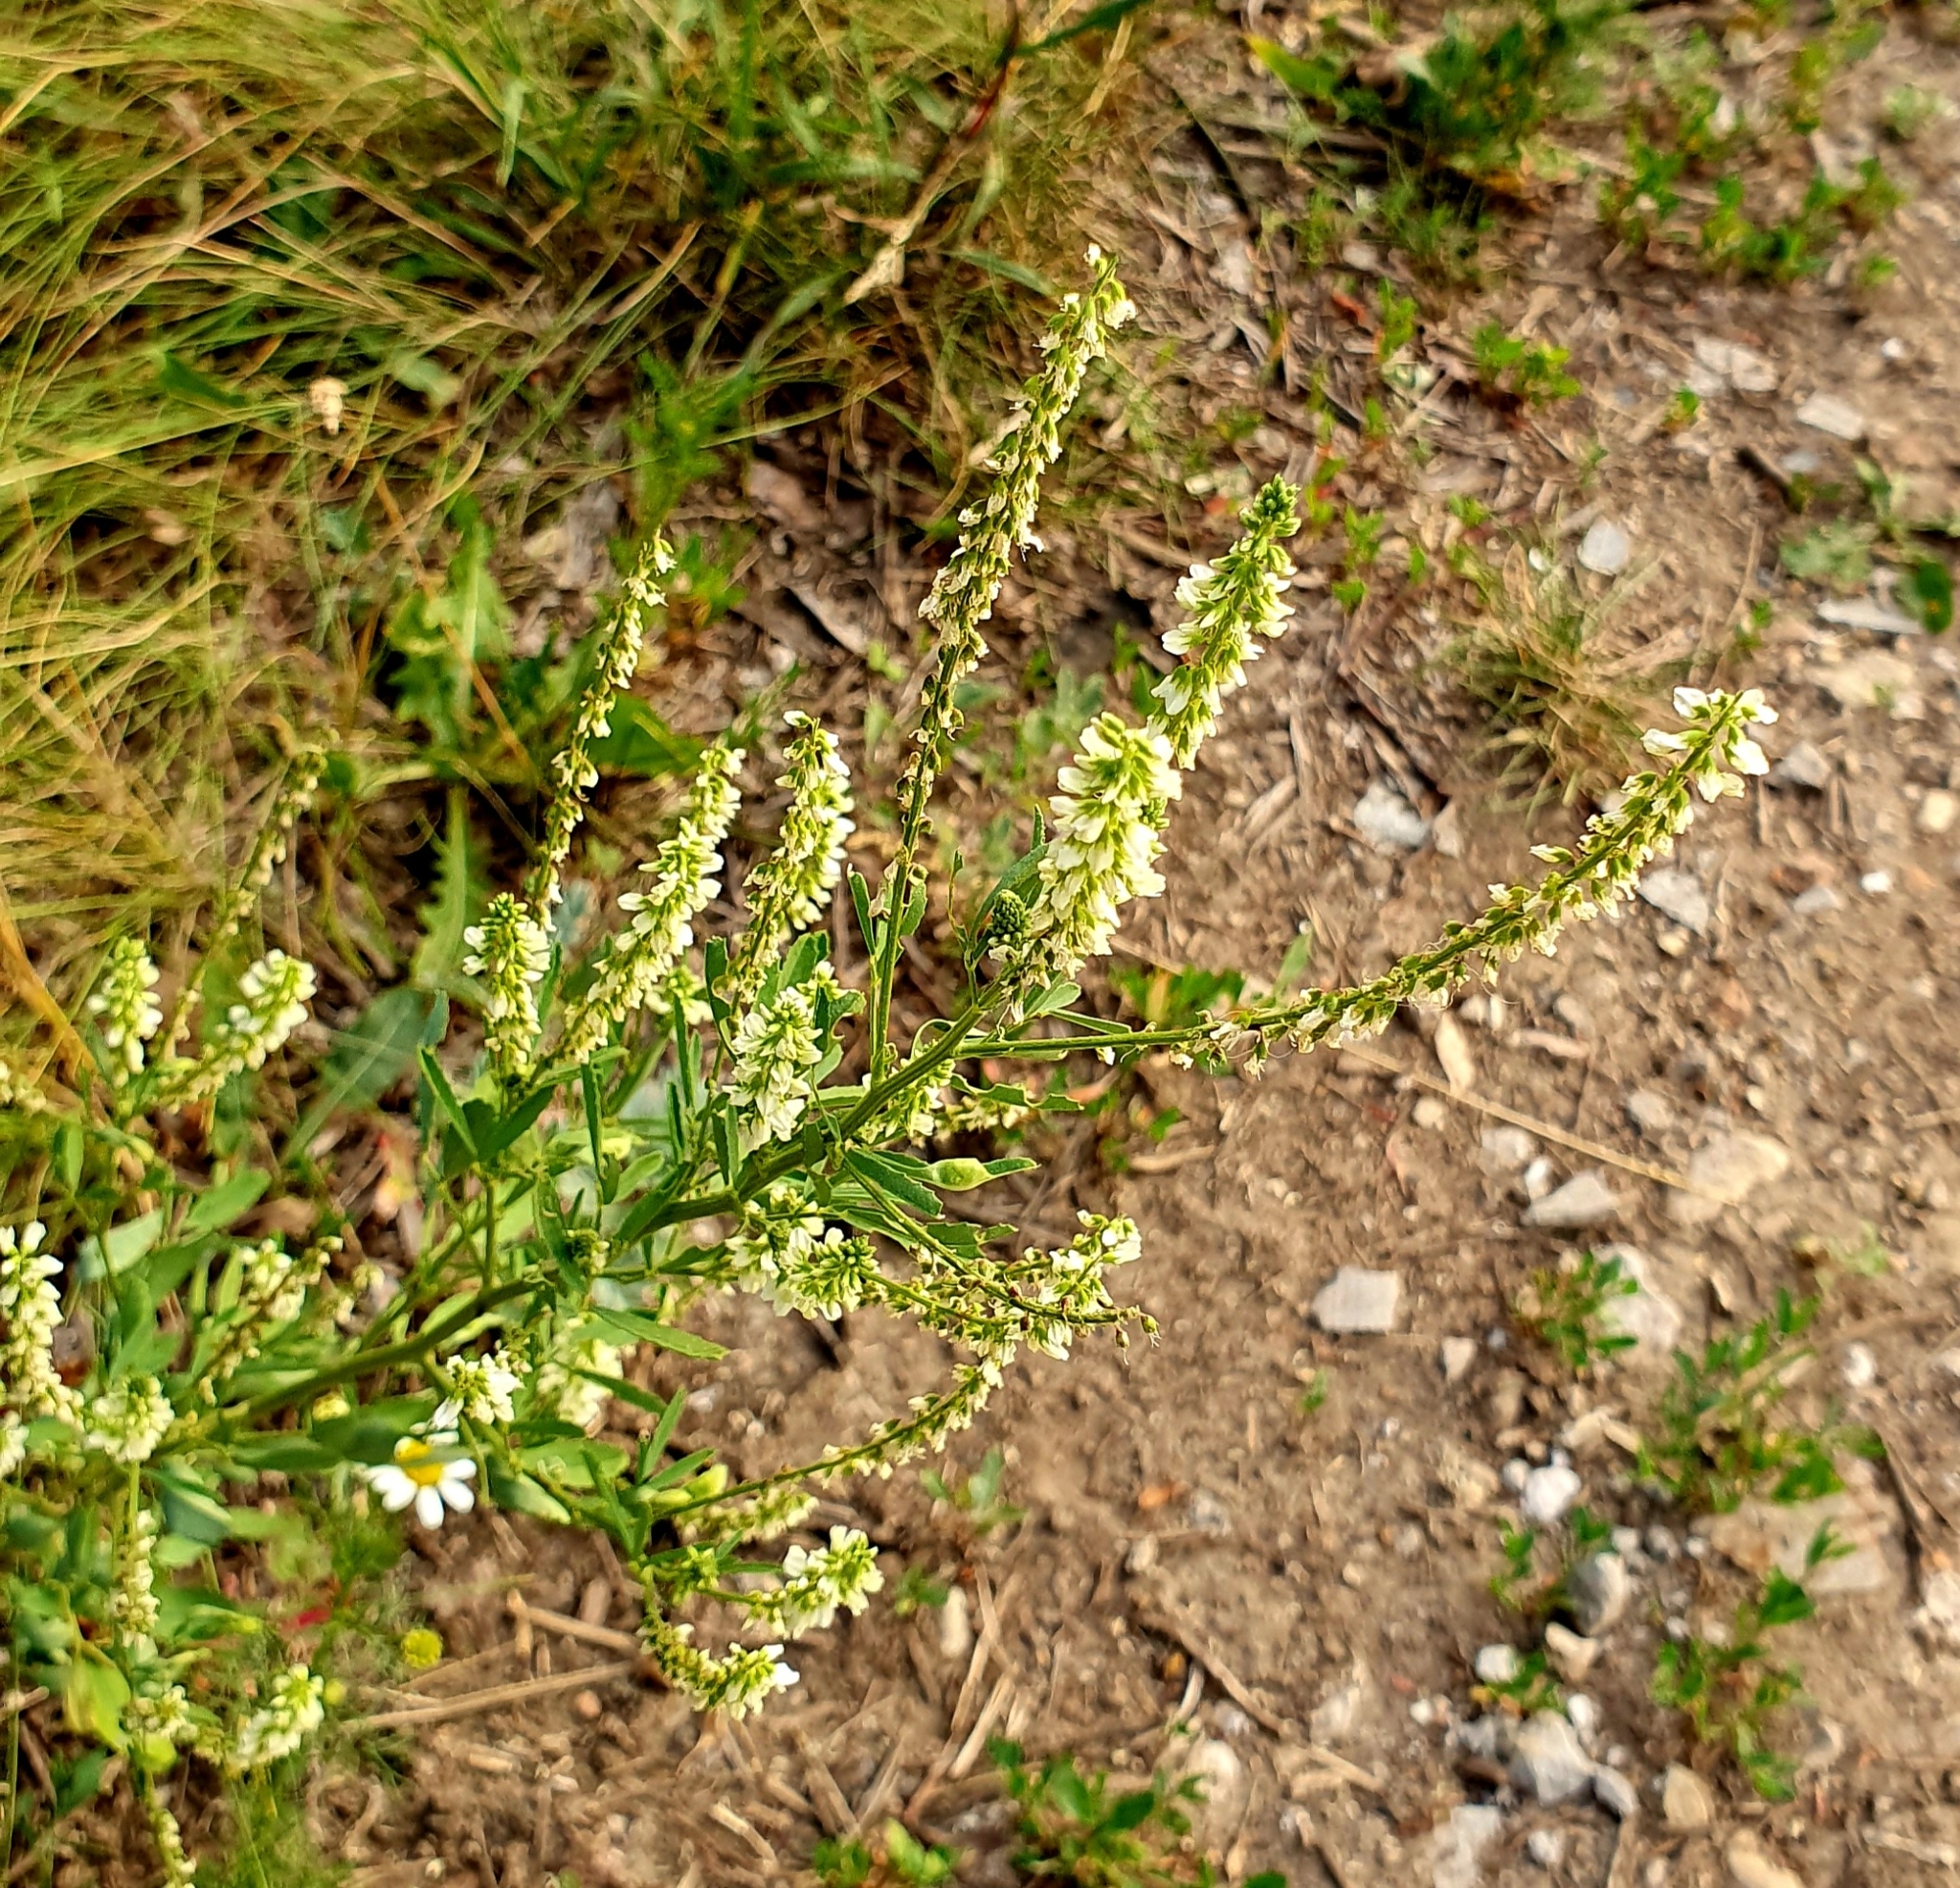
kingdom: Plantae
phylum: Tracheophyta
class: Magnoliopsida
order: Fabales
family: Fabaceae
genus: Melilotus
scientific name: Melilotus albus
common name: White melilot
